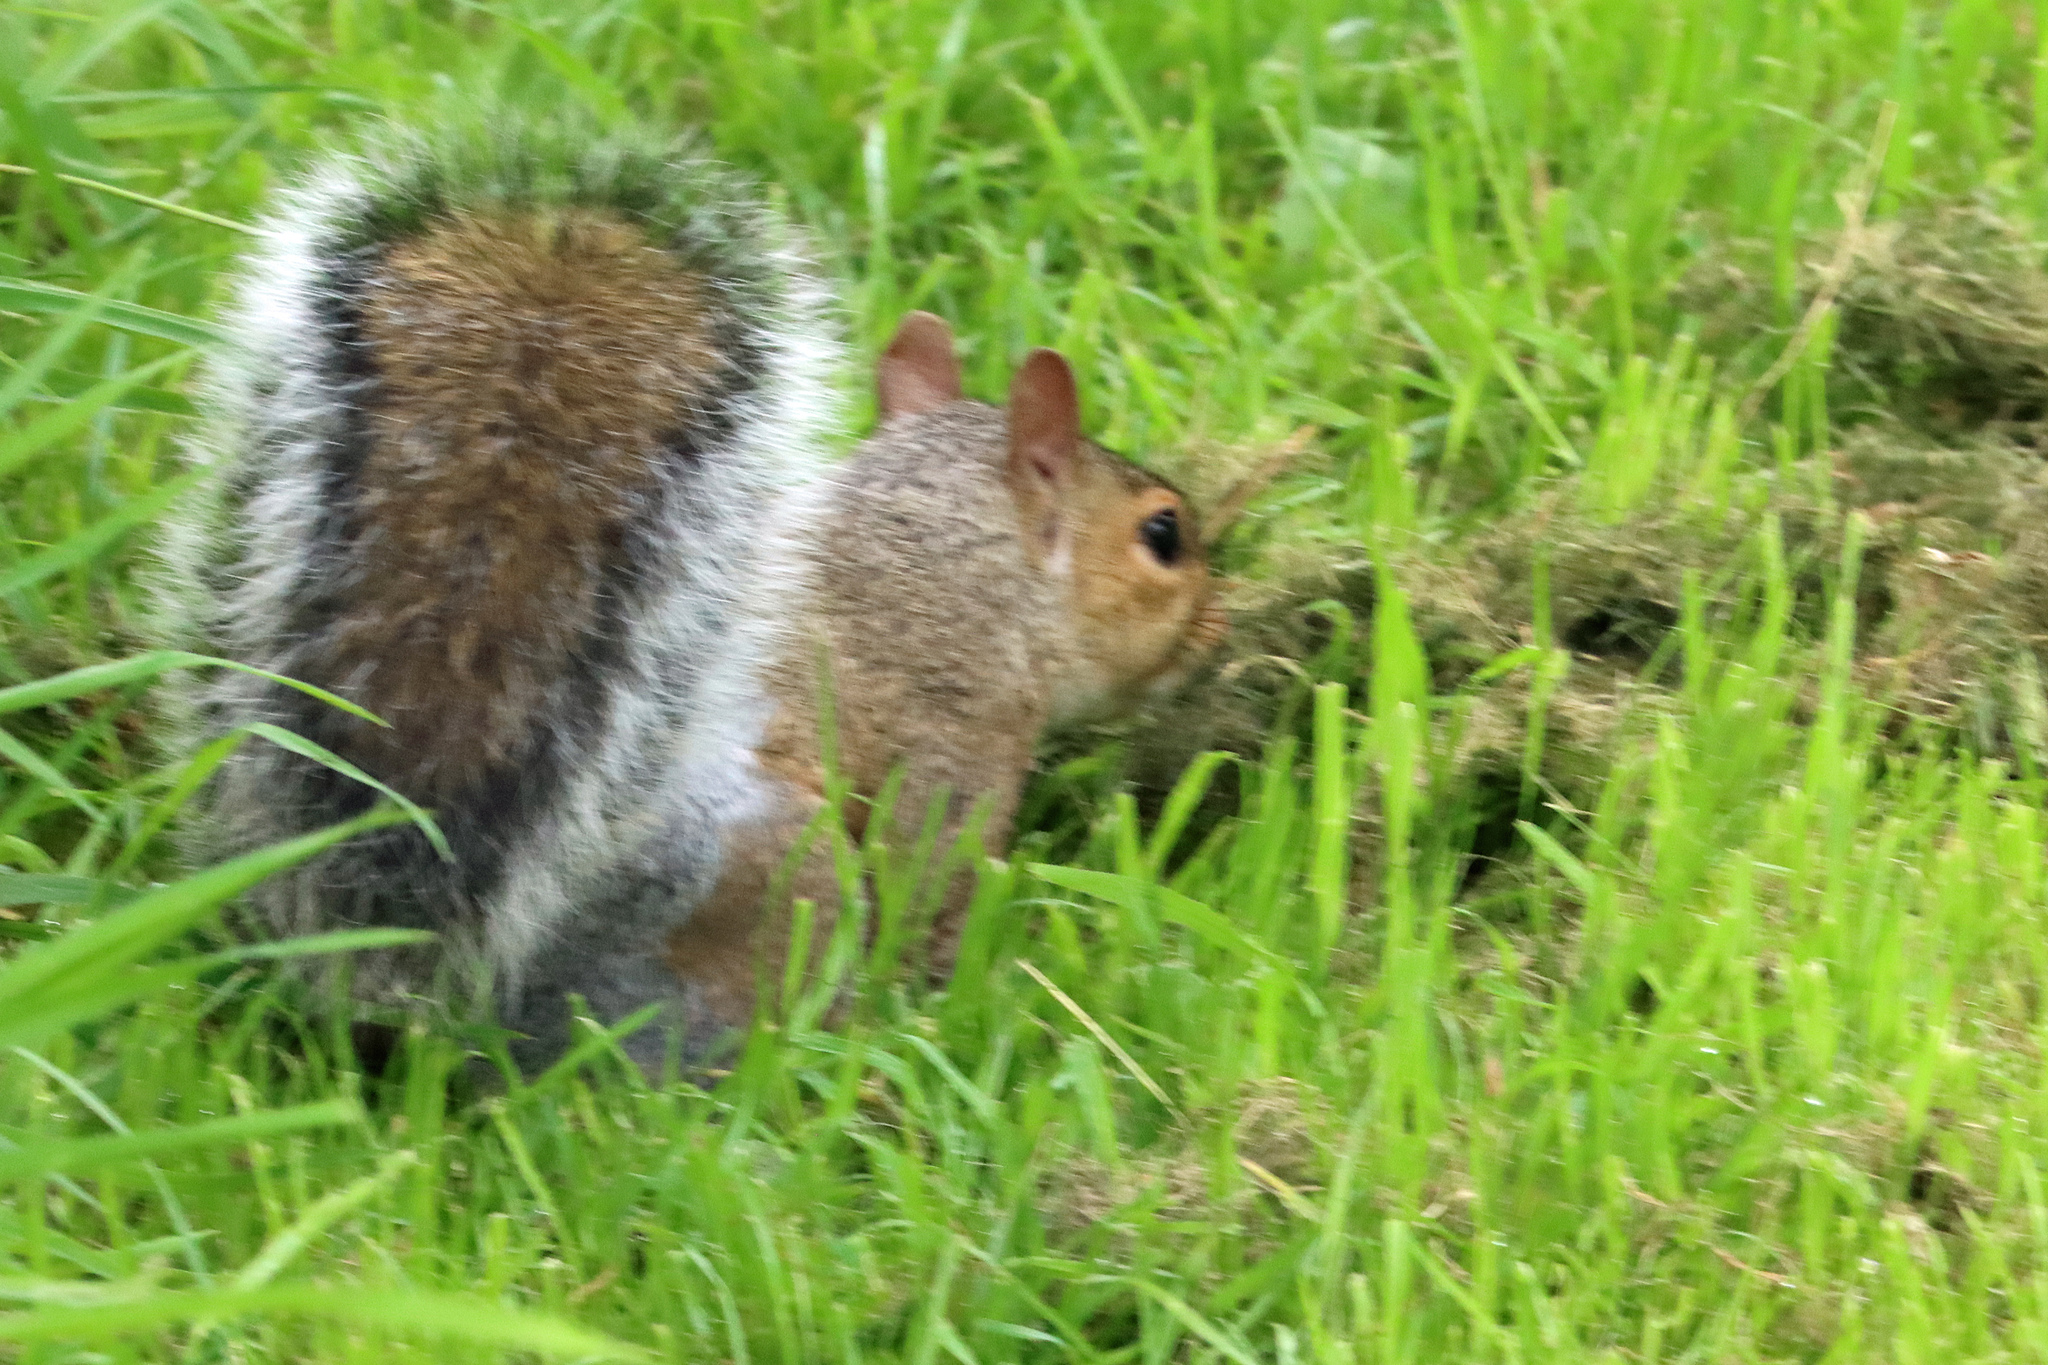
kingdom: Animalia
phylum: Chordata
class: Mammalia
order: Rodentia
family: Sciuridae
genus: Sciurus
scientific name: Sciurus carolinensis
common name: Eastern gray squirrel
